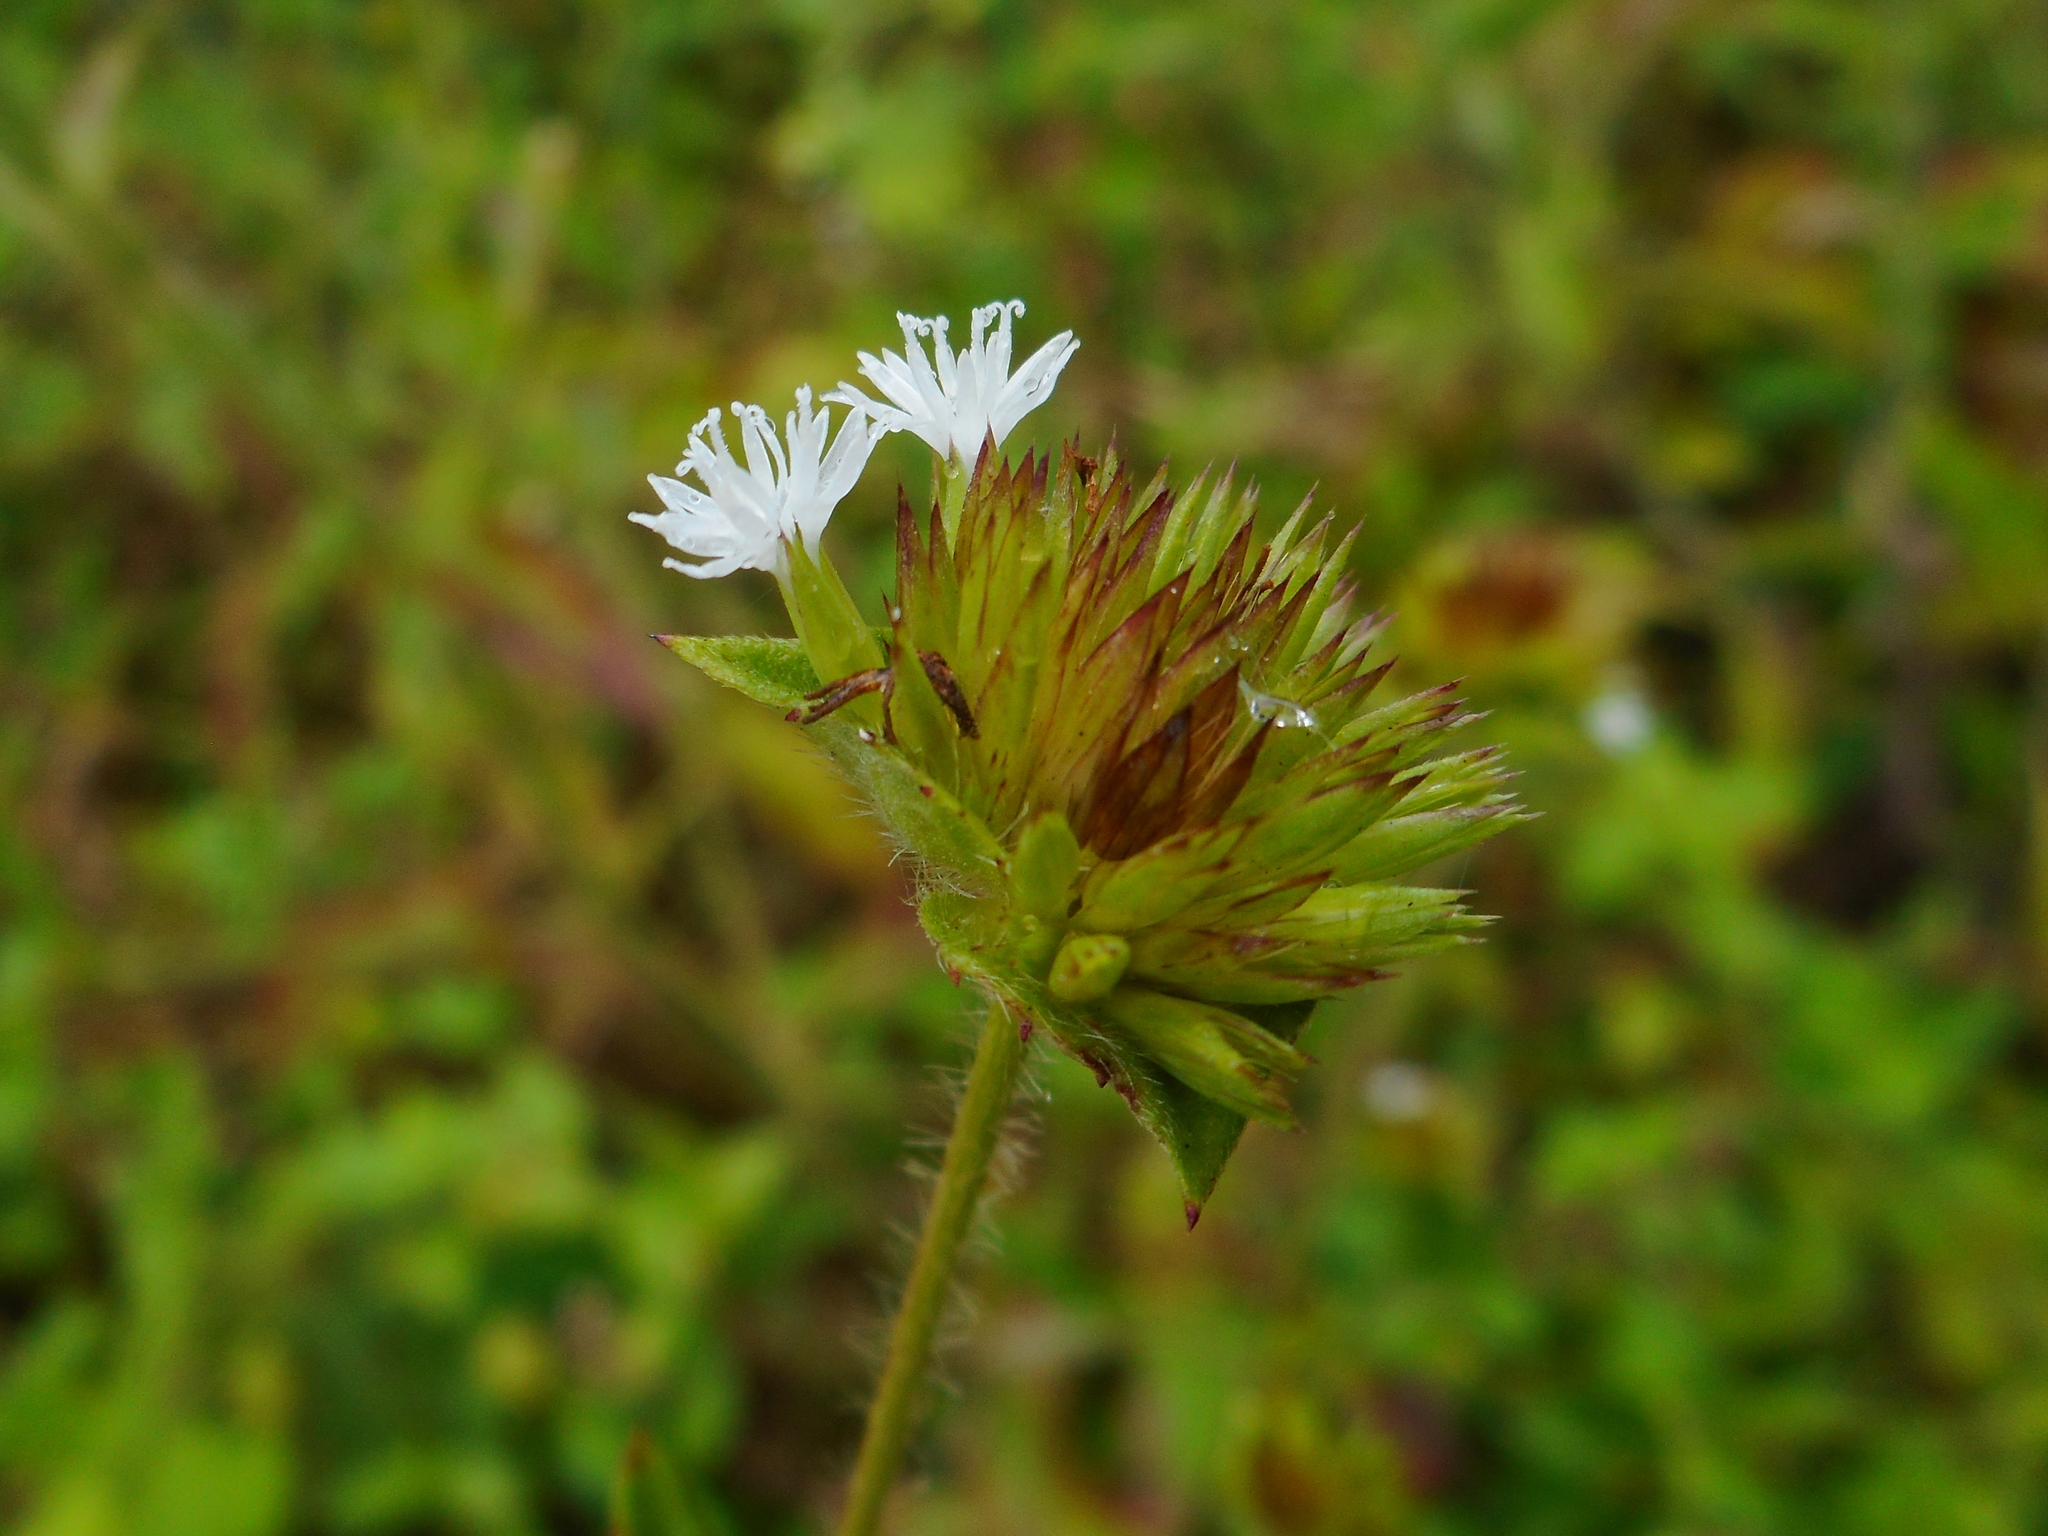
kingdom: Plantae
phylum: Tracheophyta
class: Magnoliopsida
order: Asterales
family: Asteraceae
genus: Elephantopus
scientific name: Elephantopus mollis
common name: Soft elephantsfoot
